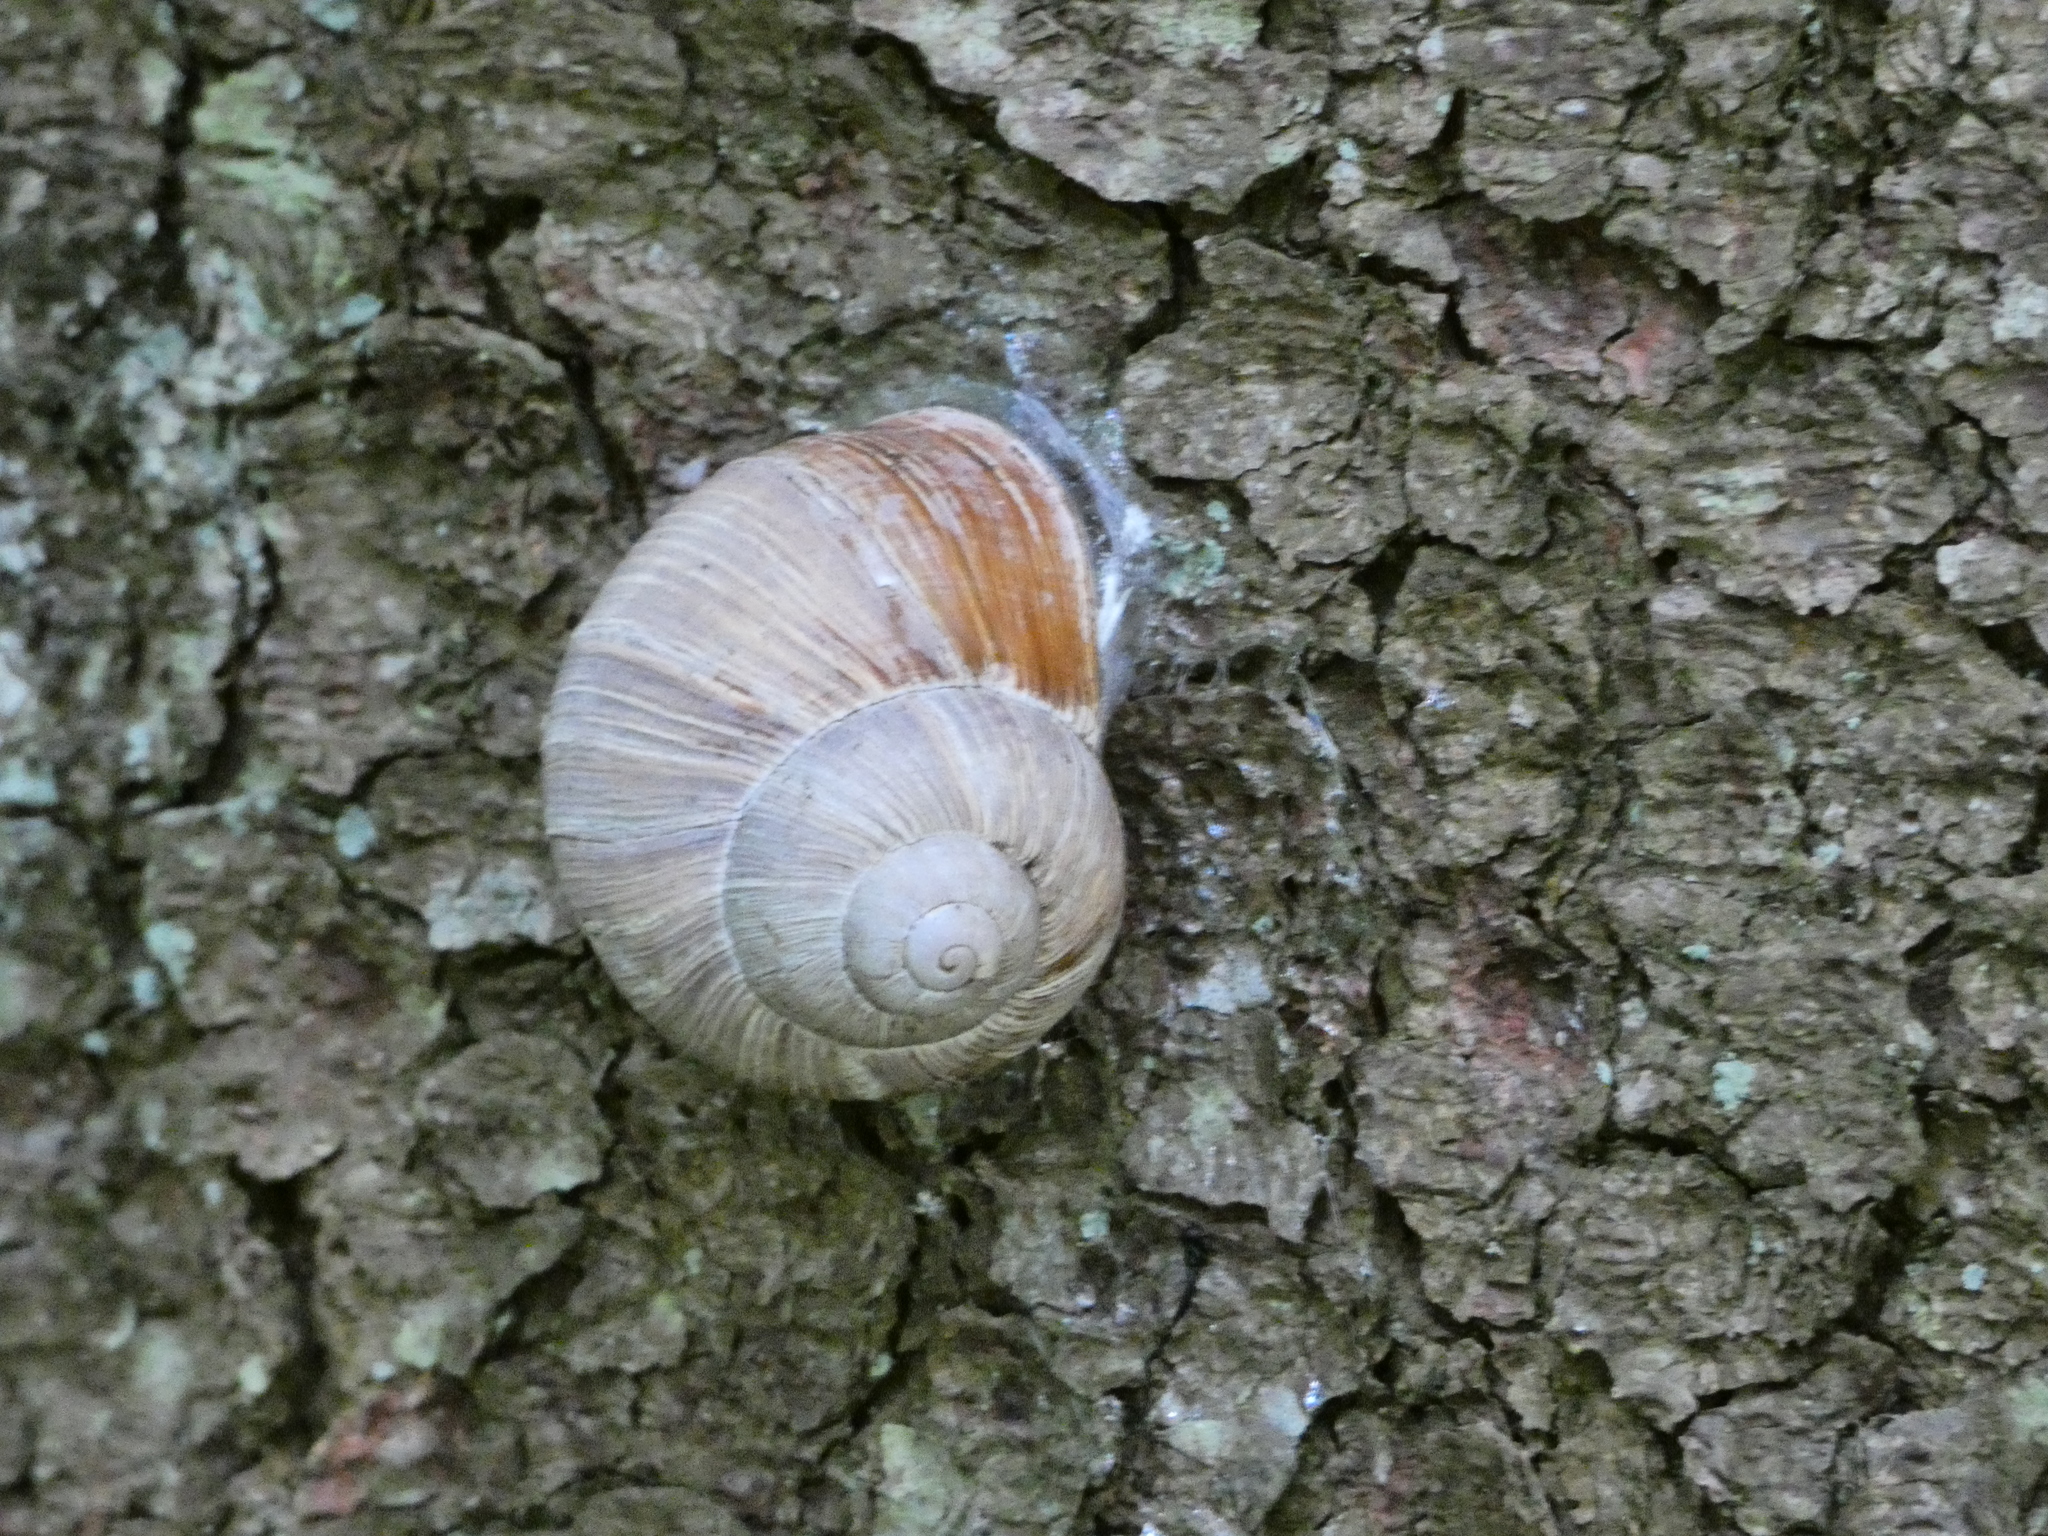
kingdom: Animalia
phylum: Mollusca
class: Gastropoda
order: Stylommatophora
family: Helicidae
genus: Helix
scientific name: Helix pomatia
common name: Roman snail
